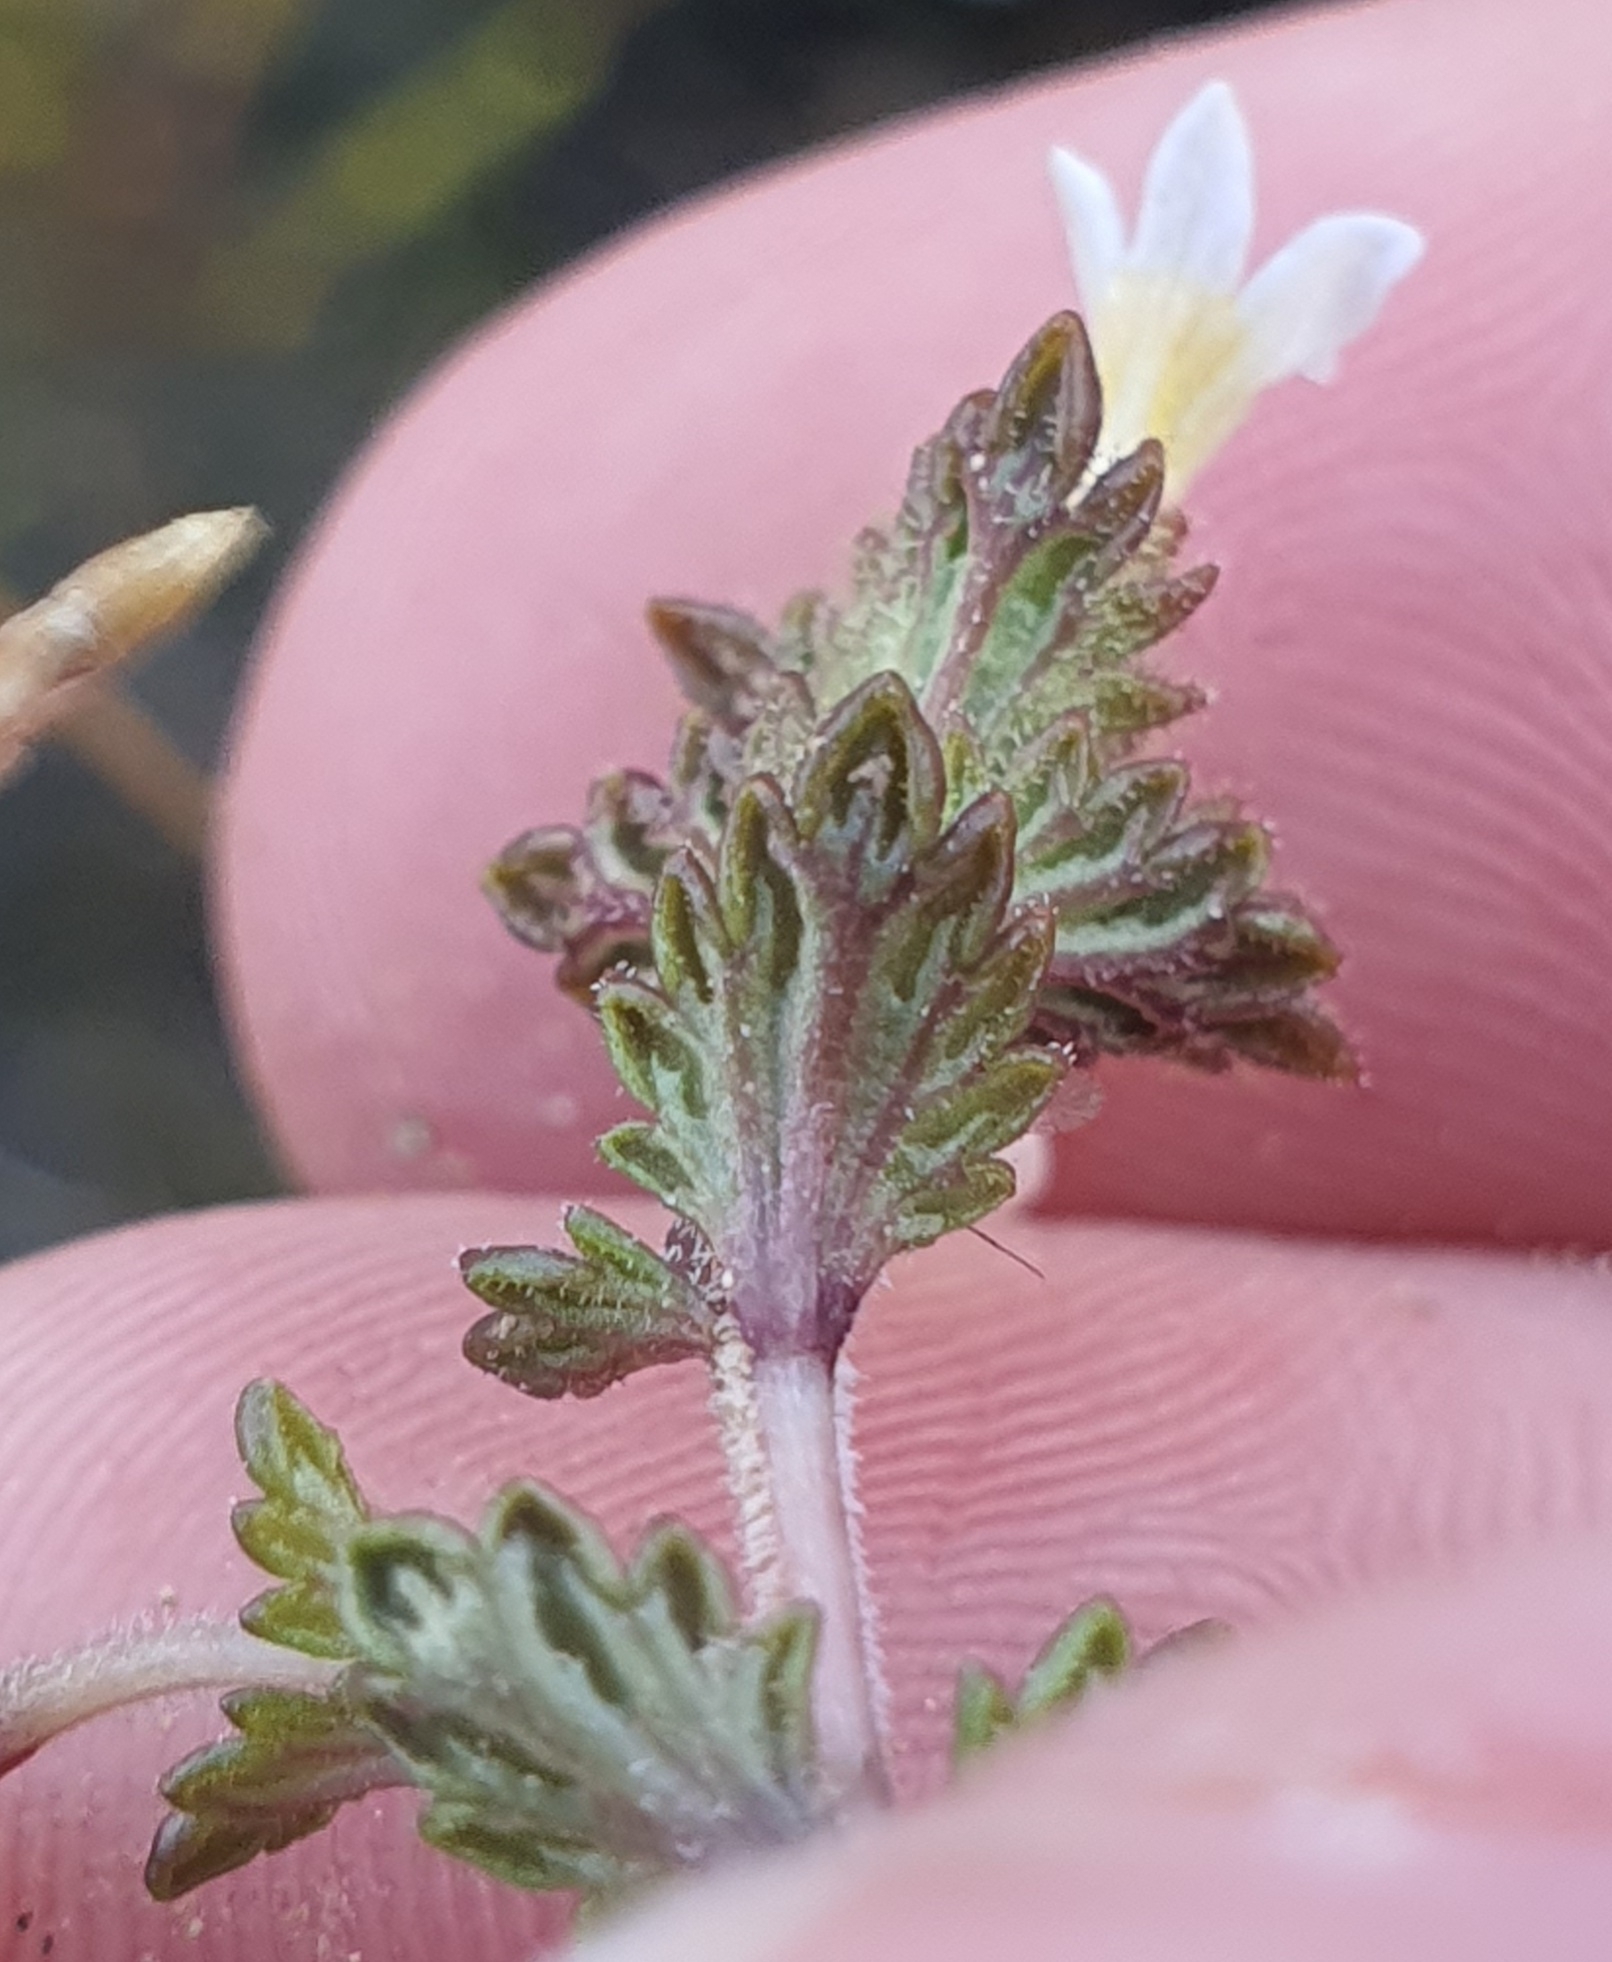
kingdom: Plantae
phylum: Tracheophyta
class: Magnoliopsida
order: Lamiales
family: Orobanchaceae
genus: Euphrasia
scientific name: Euphrasia zelandica
